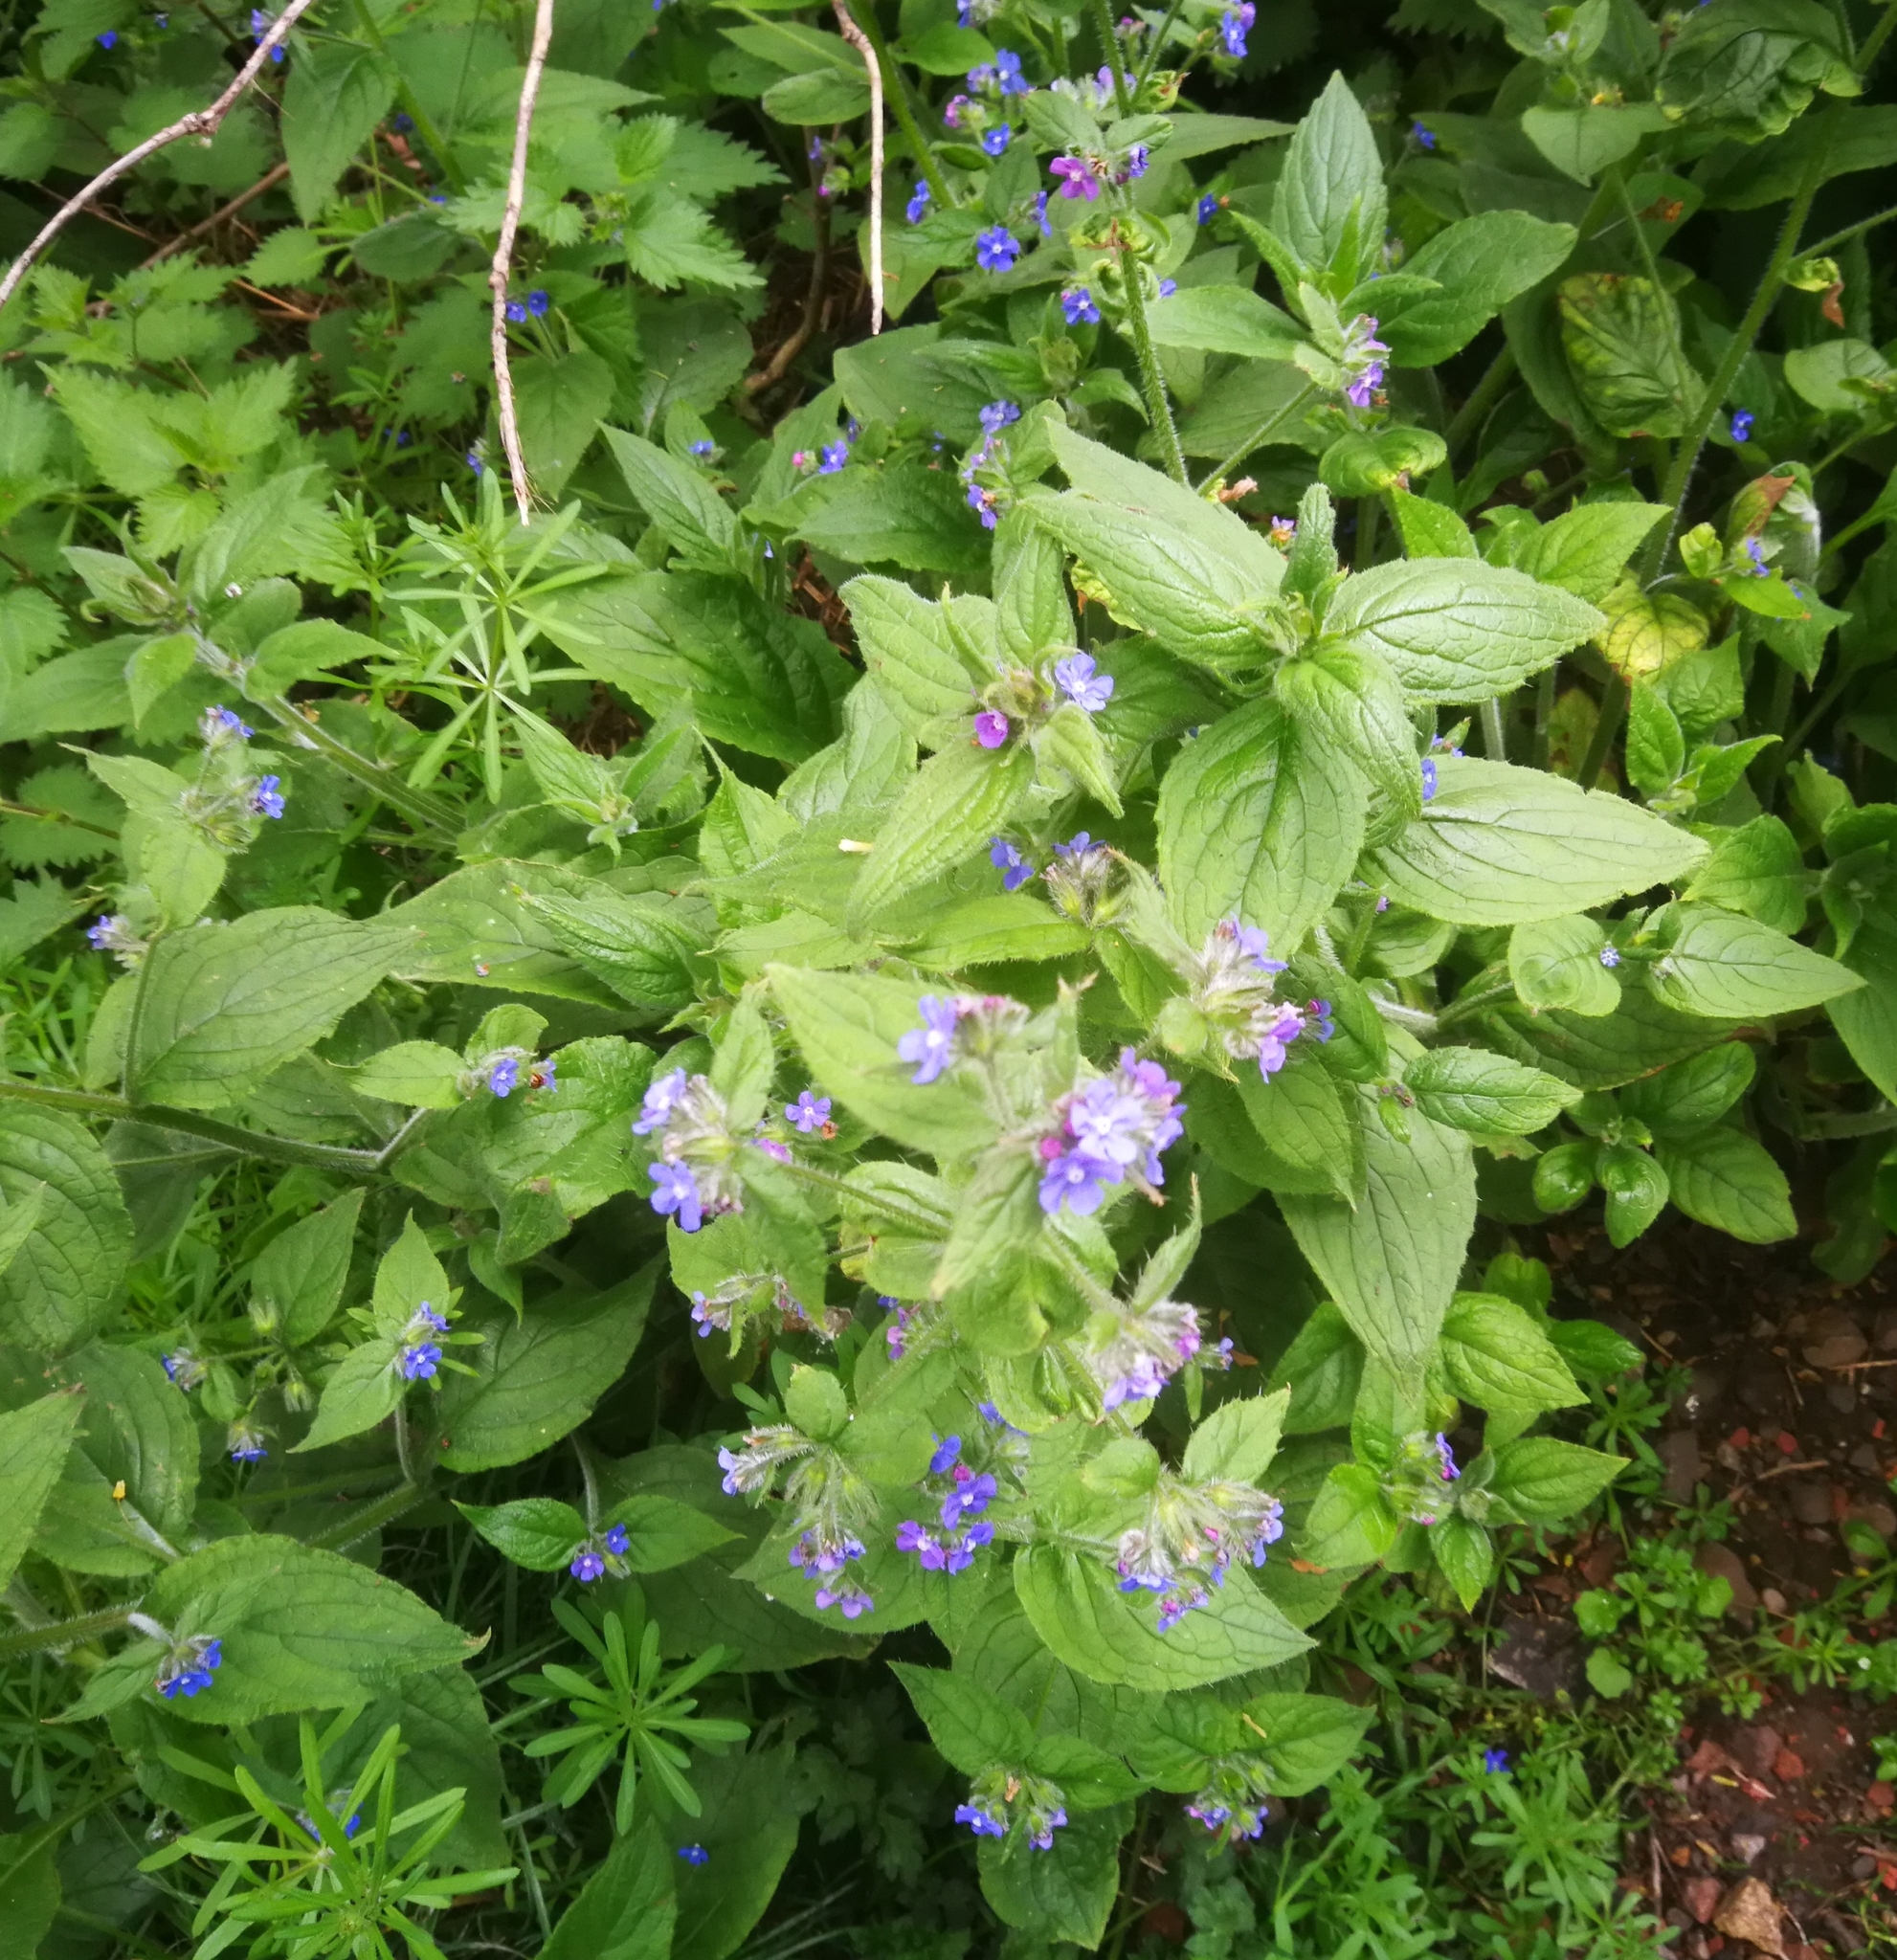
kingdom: Plantae
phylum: Tracheophyta
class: Magnoliopsida
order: Boraginales
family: Boraginaceae
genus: Pentaglottis
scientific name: Pentaglottis sempervirens
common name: Green alkanet
